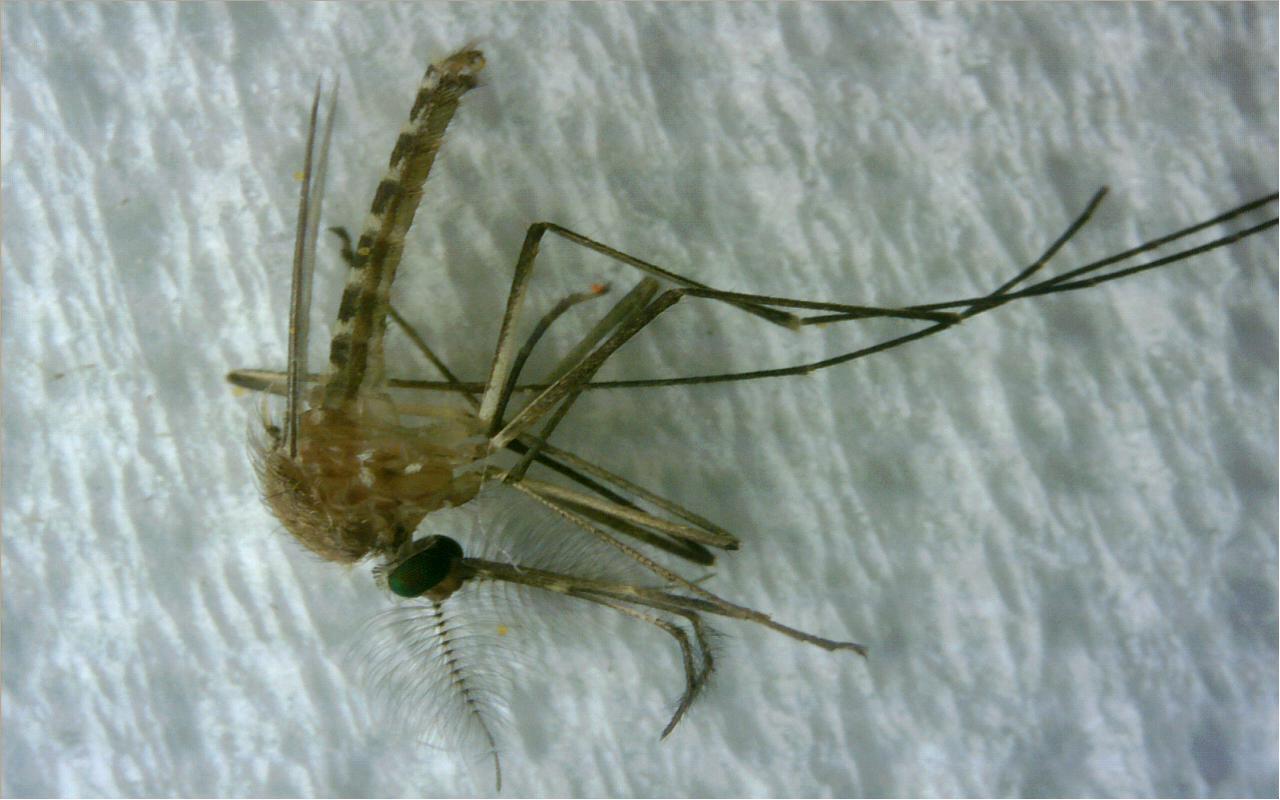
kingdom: Animalia
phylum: Arthropoda
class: Insecta
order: Diptera
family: Culicidae
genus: Culex
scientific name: Culex pipiens
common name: Mosquito
